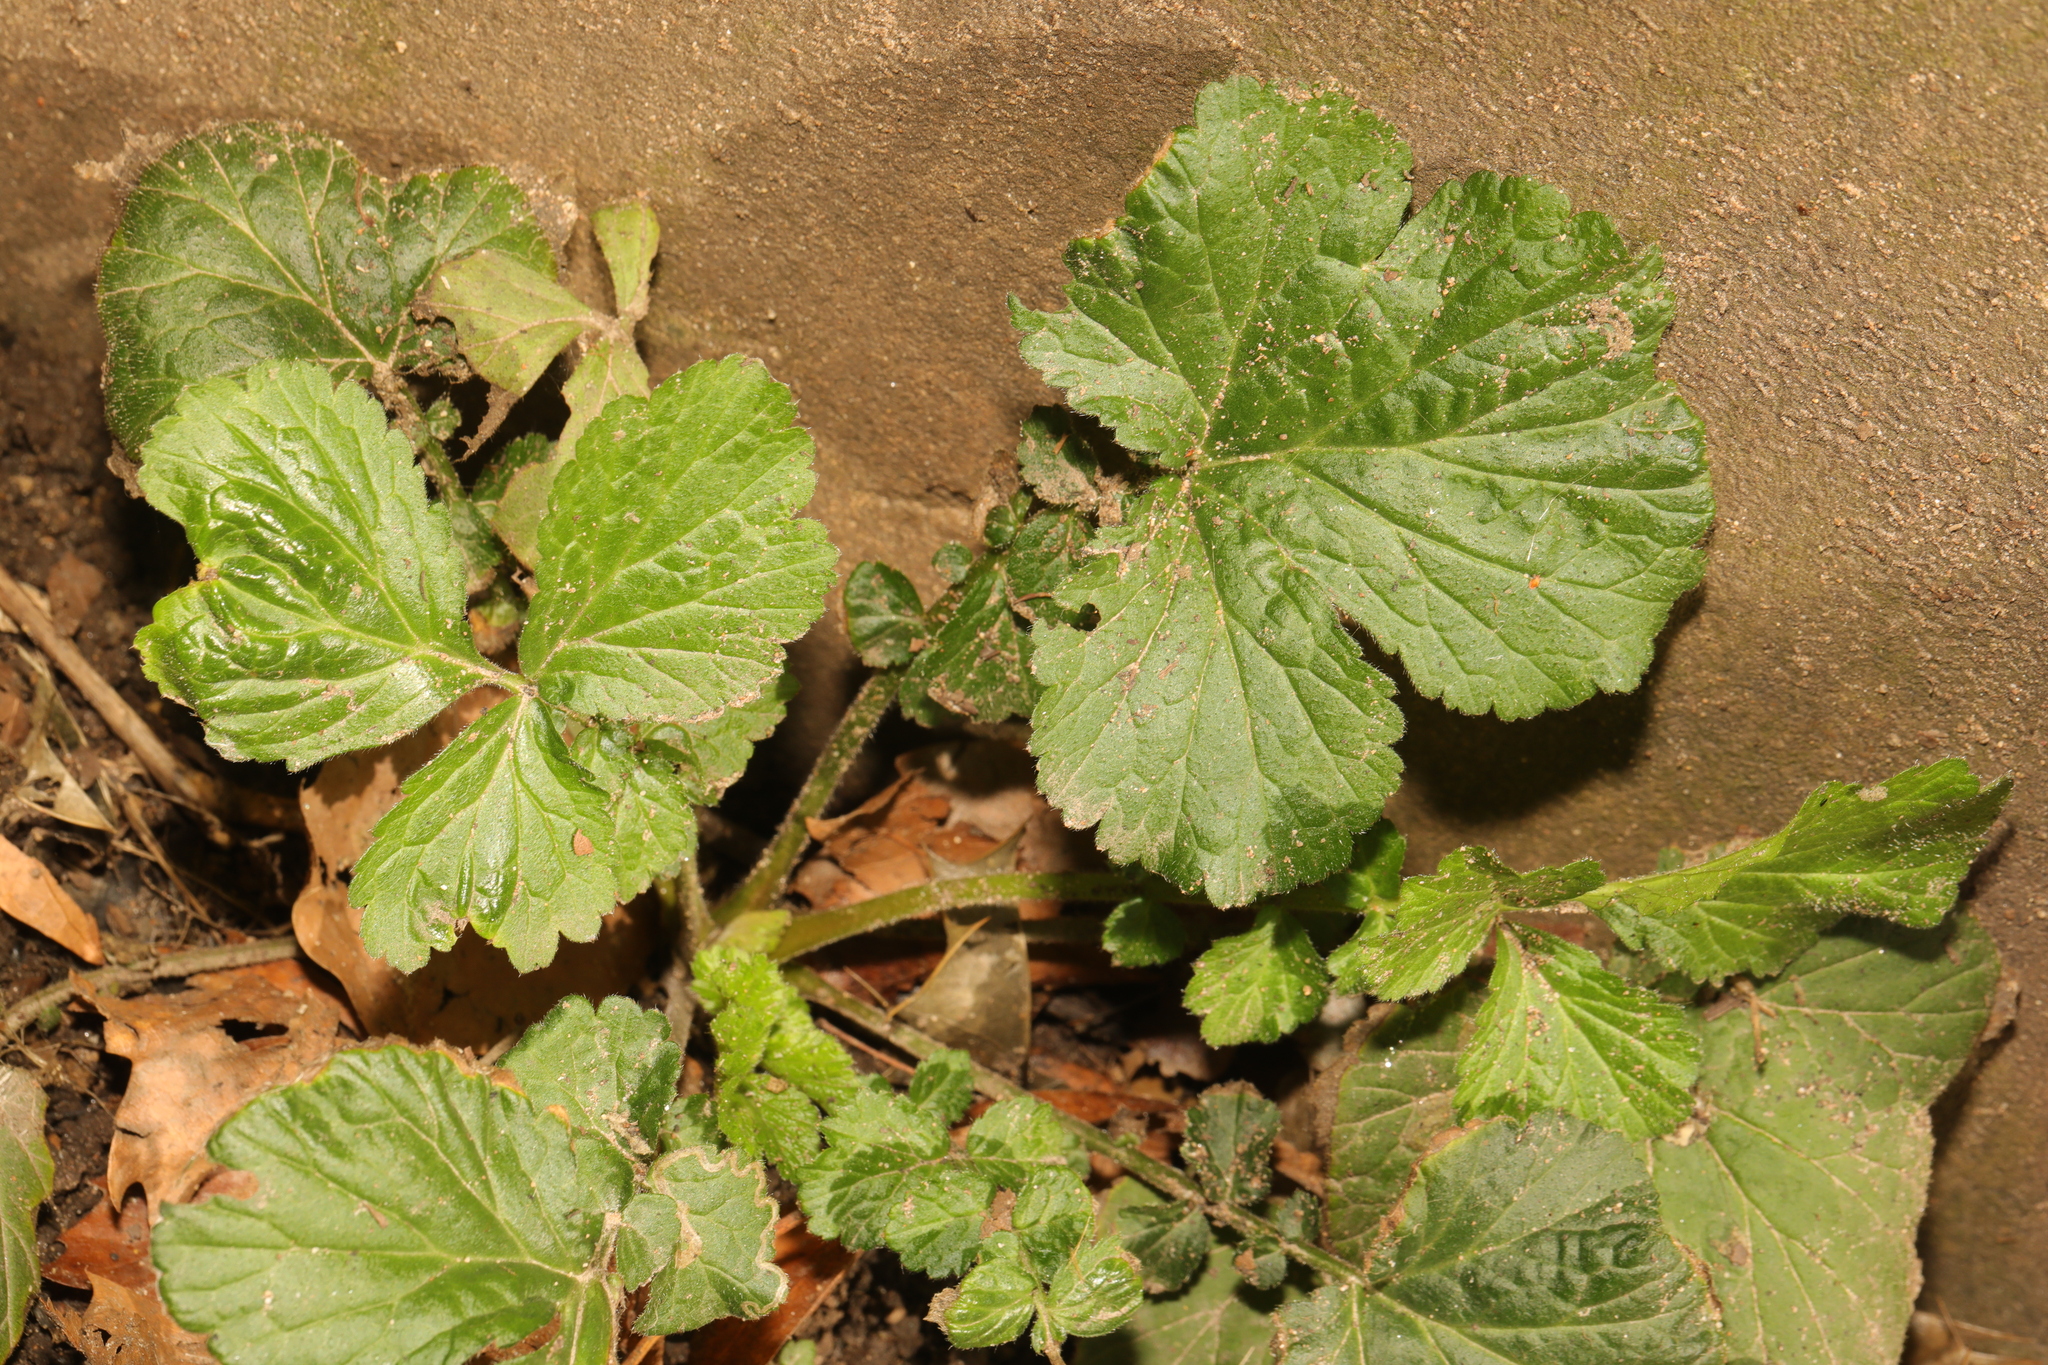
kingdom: Plantae
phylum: Tracheophyta
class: Magnoliopsida
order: Rosales
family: Rosaceae
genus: Geum
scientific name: Geum urbanum
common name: Wood avens
